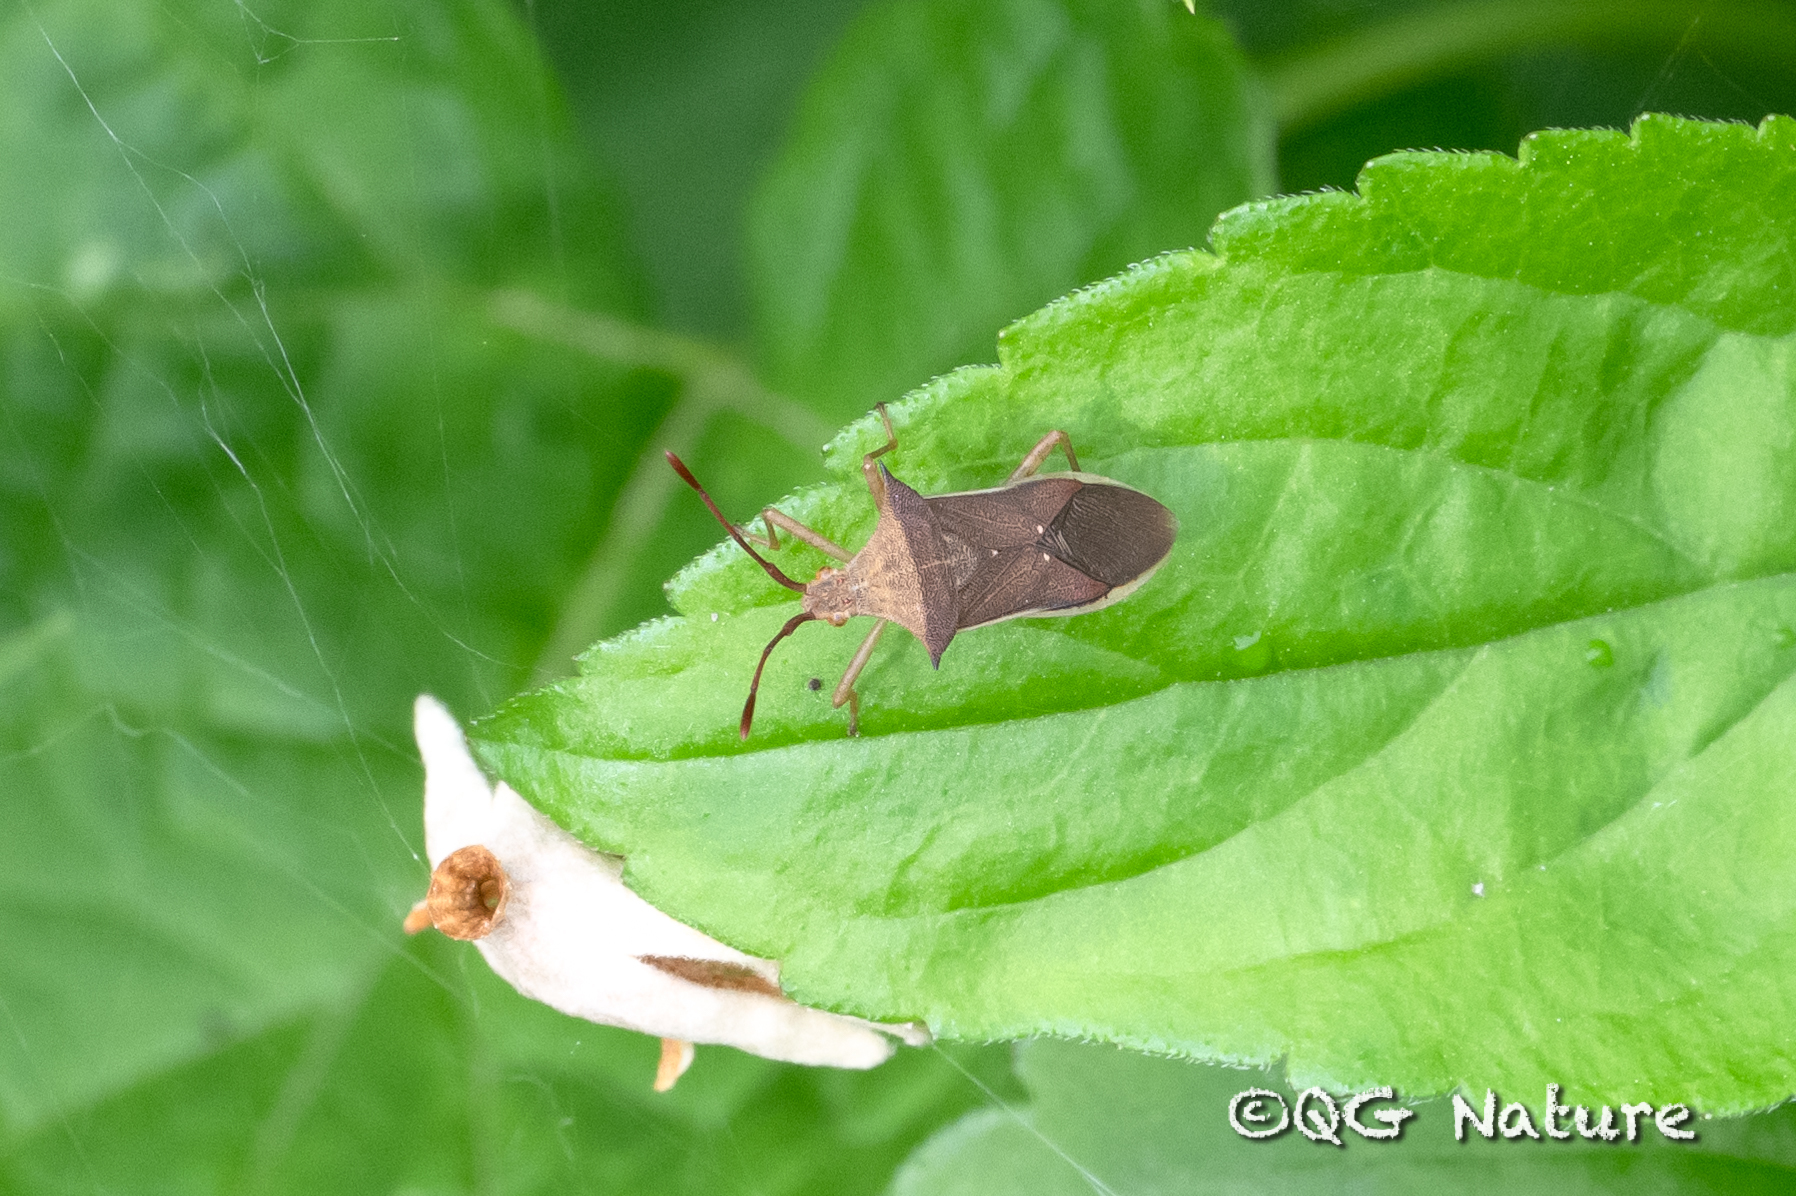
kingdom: Animalia
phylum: Arthropoda
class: Insecta
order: Hemiptera
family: Coreidae
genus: Cletus
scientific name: Cletus schmidti
